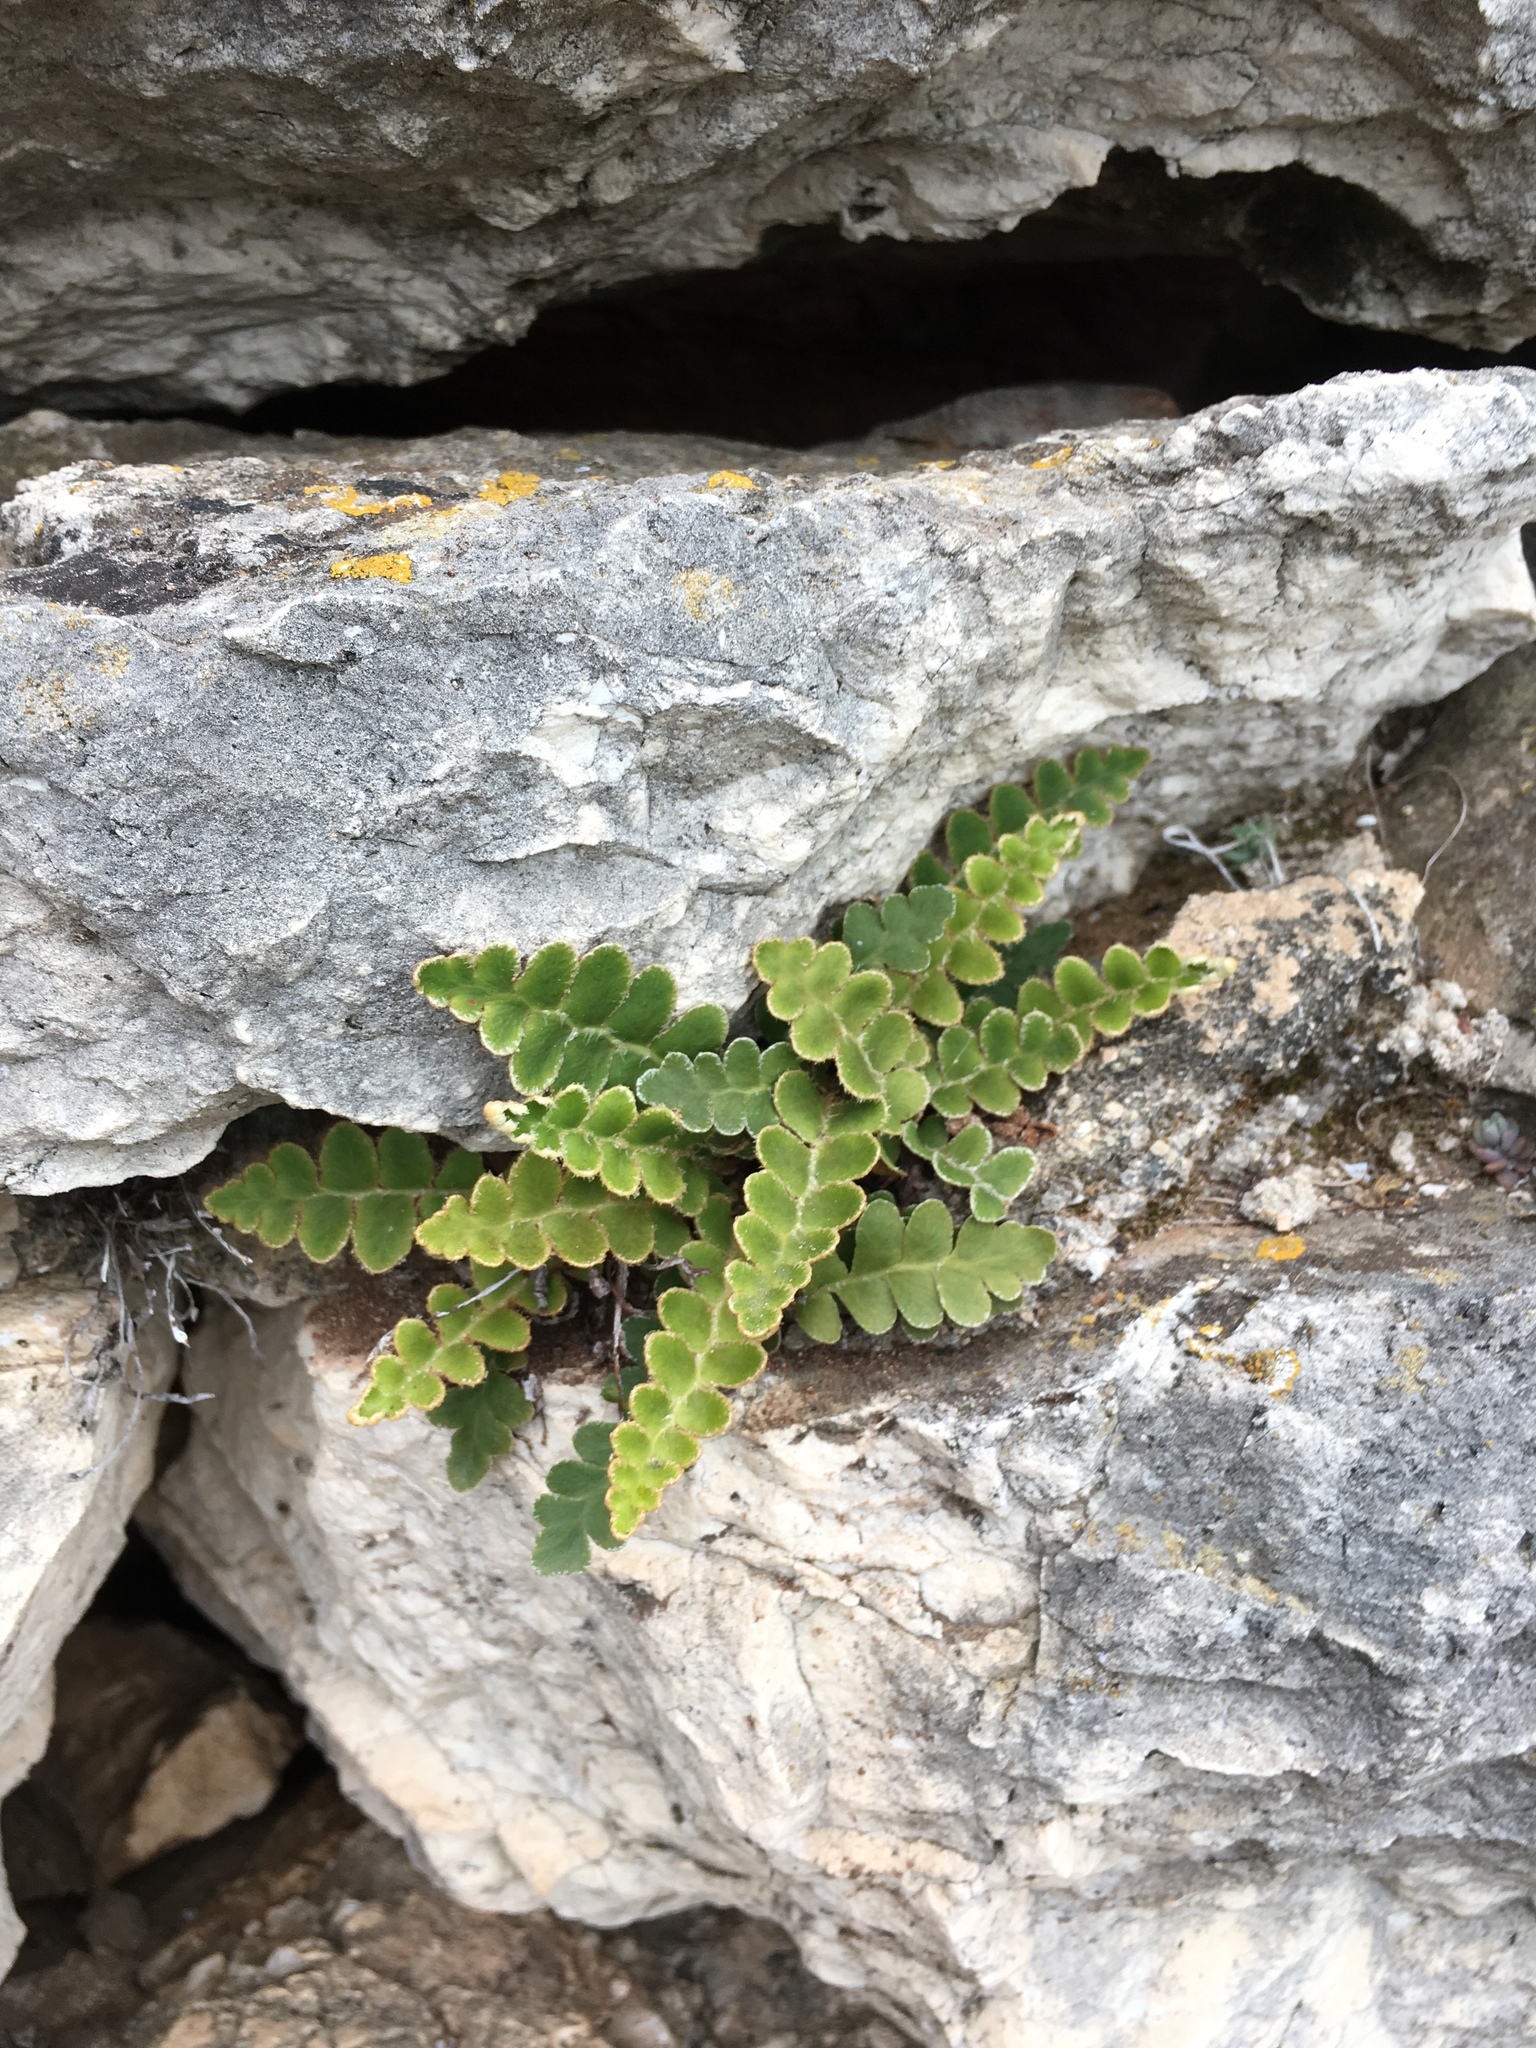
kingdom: Plantae
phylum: Tracheophyta
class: Polypodiopsida
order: Polypodiales
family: Aspleniaceae
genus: Asplenium
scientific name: Asplenium ceterach
